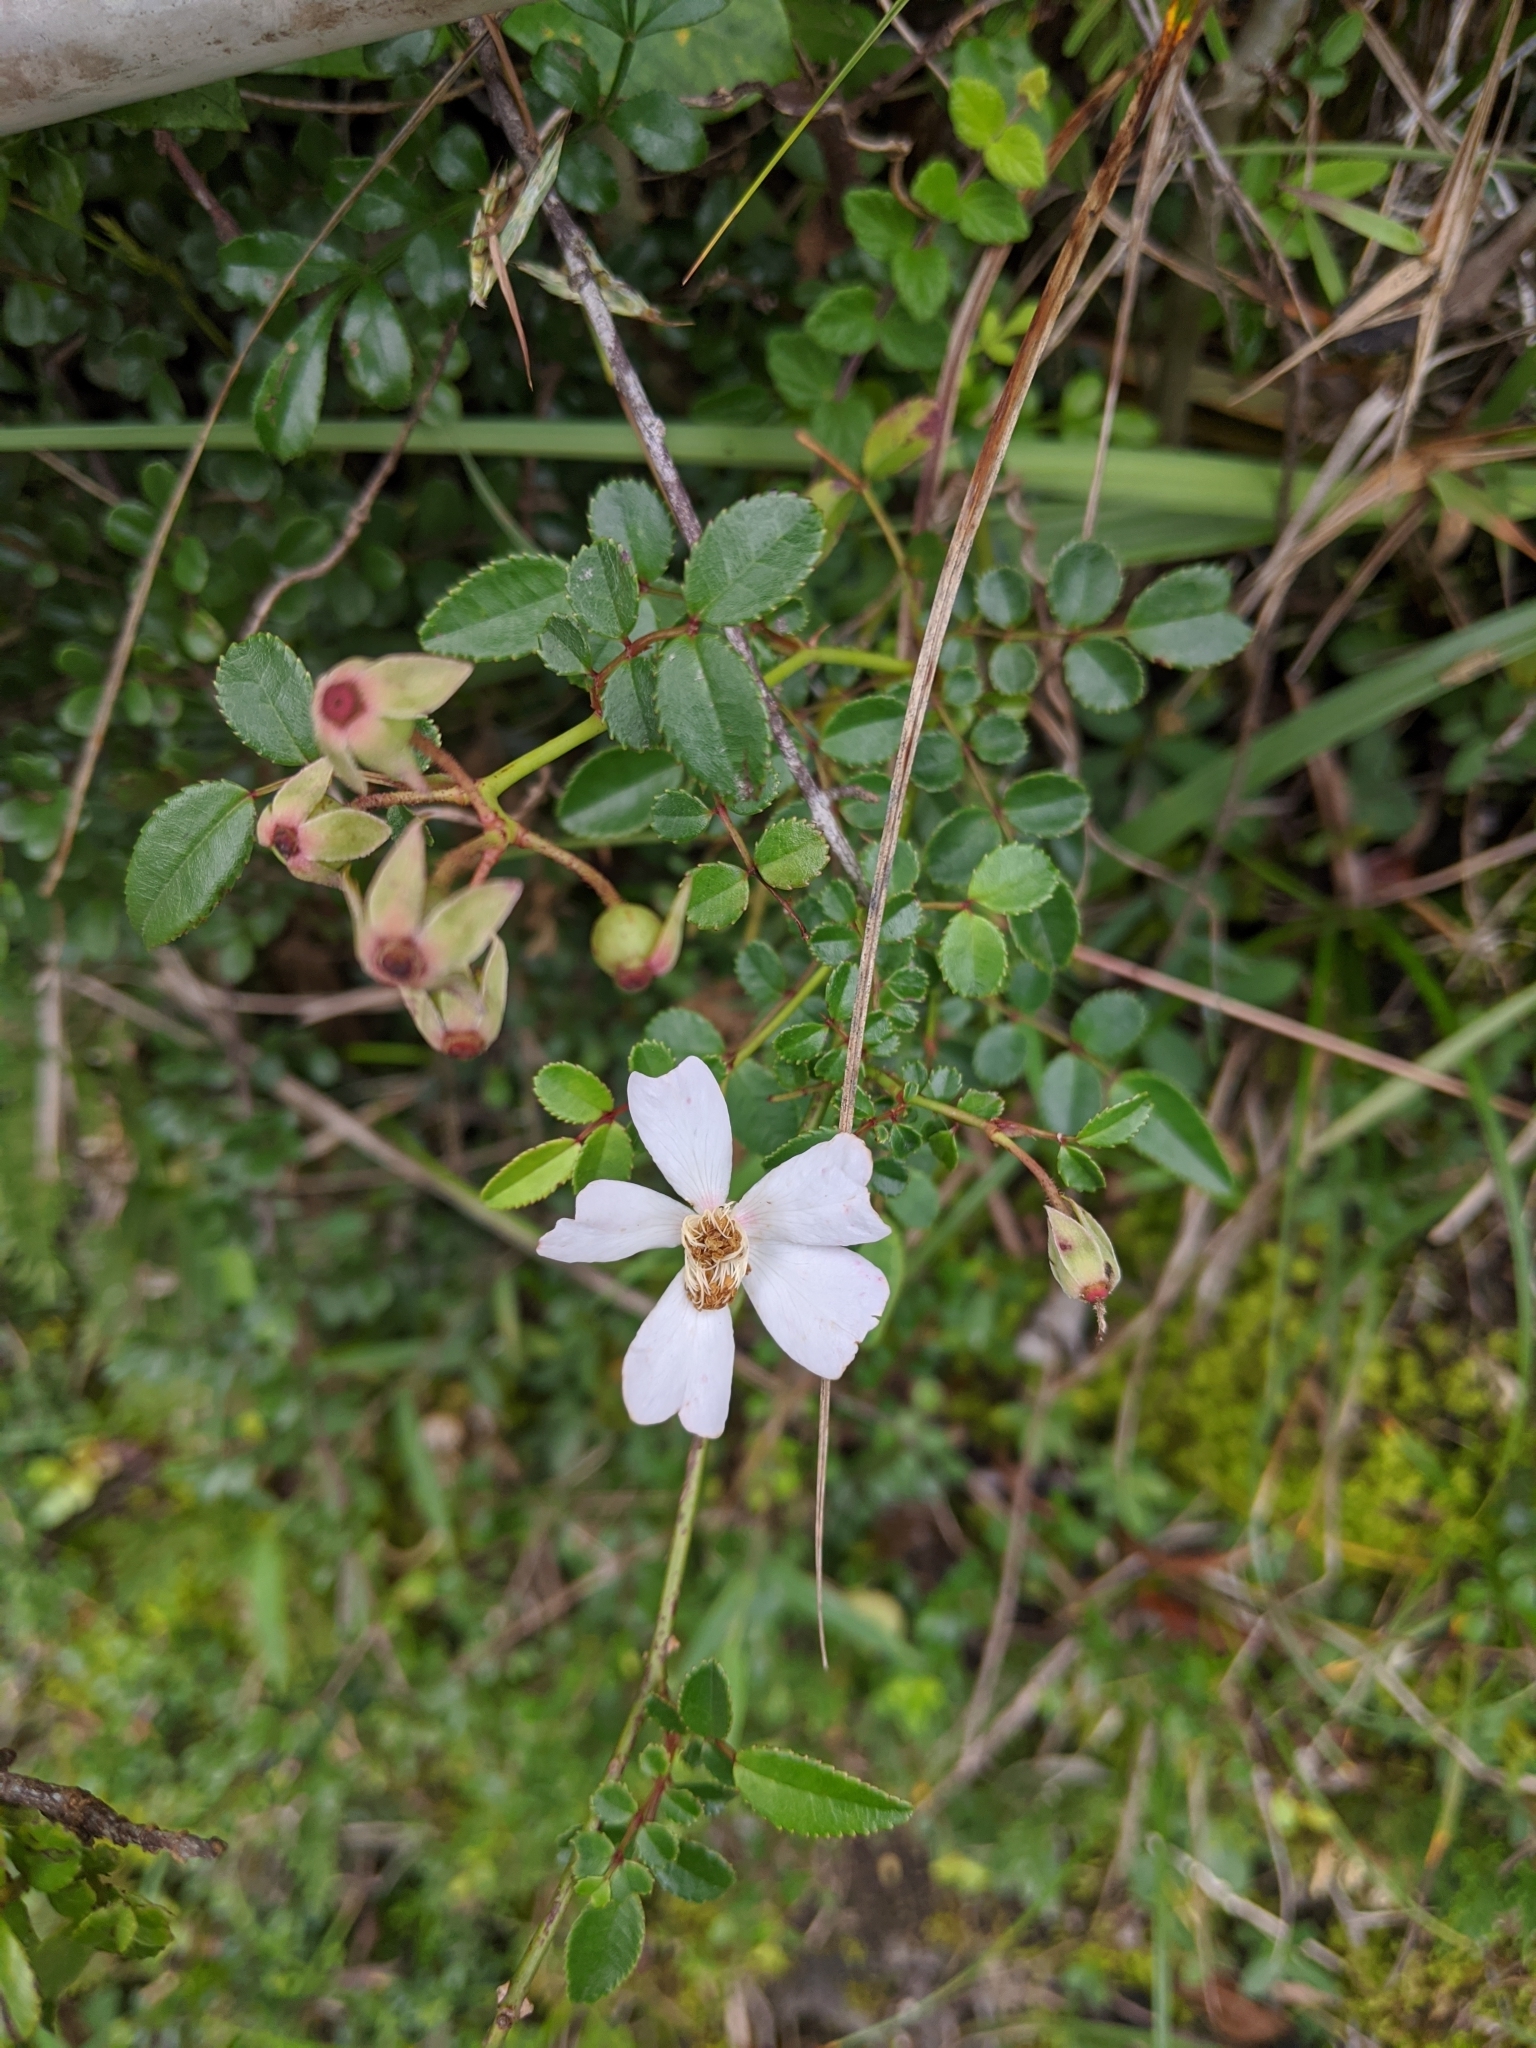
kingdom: Plantae
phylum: Tracheophyta
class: Magnoliopsida
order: Rosales
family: Rosaceae
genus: Rosa
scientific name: Rosa pricei
